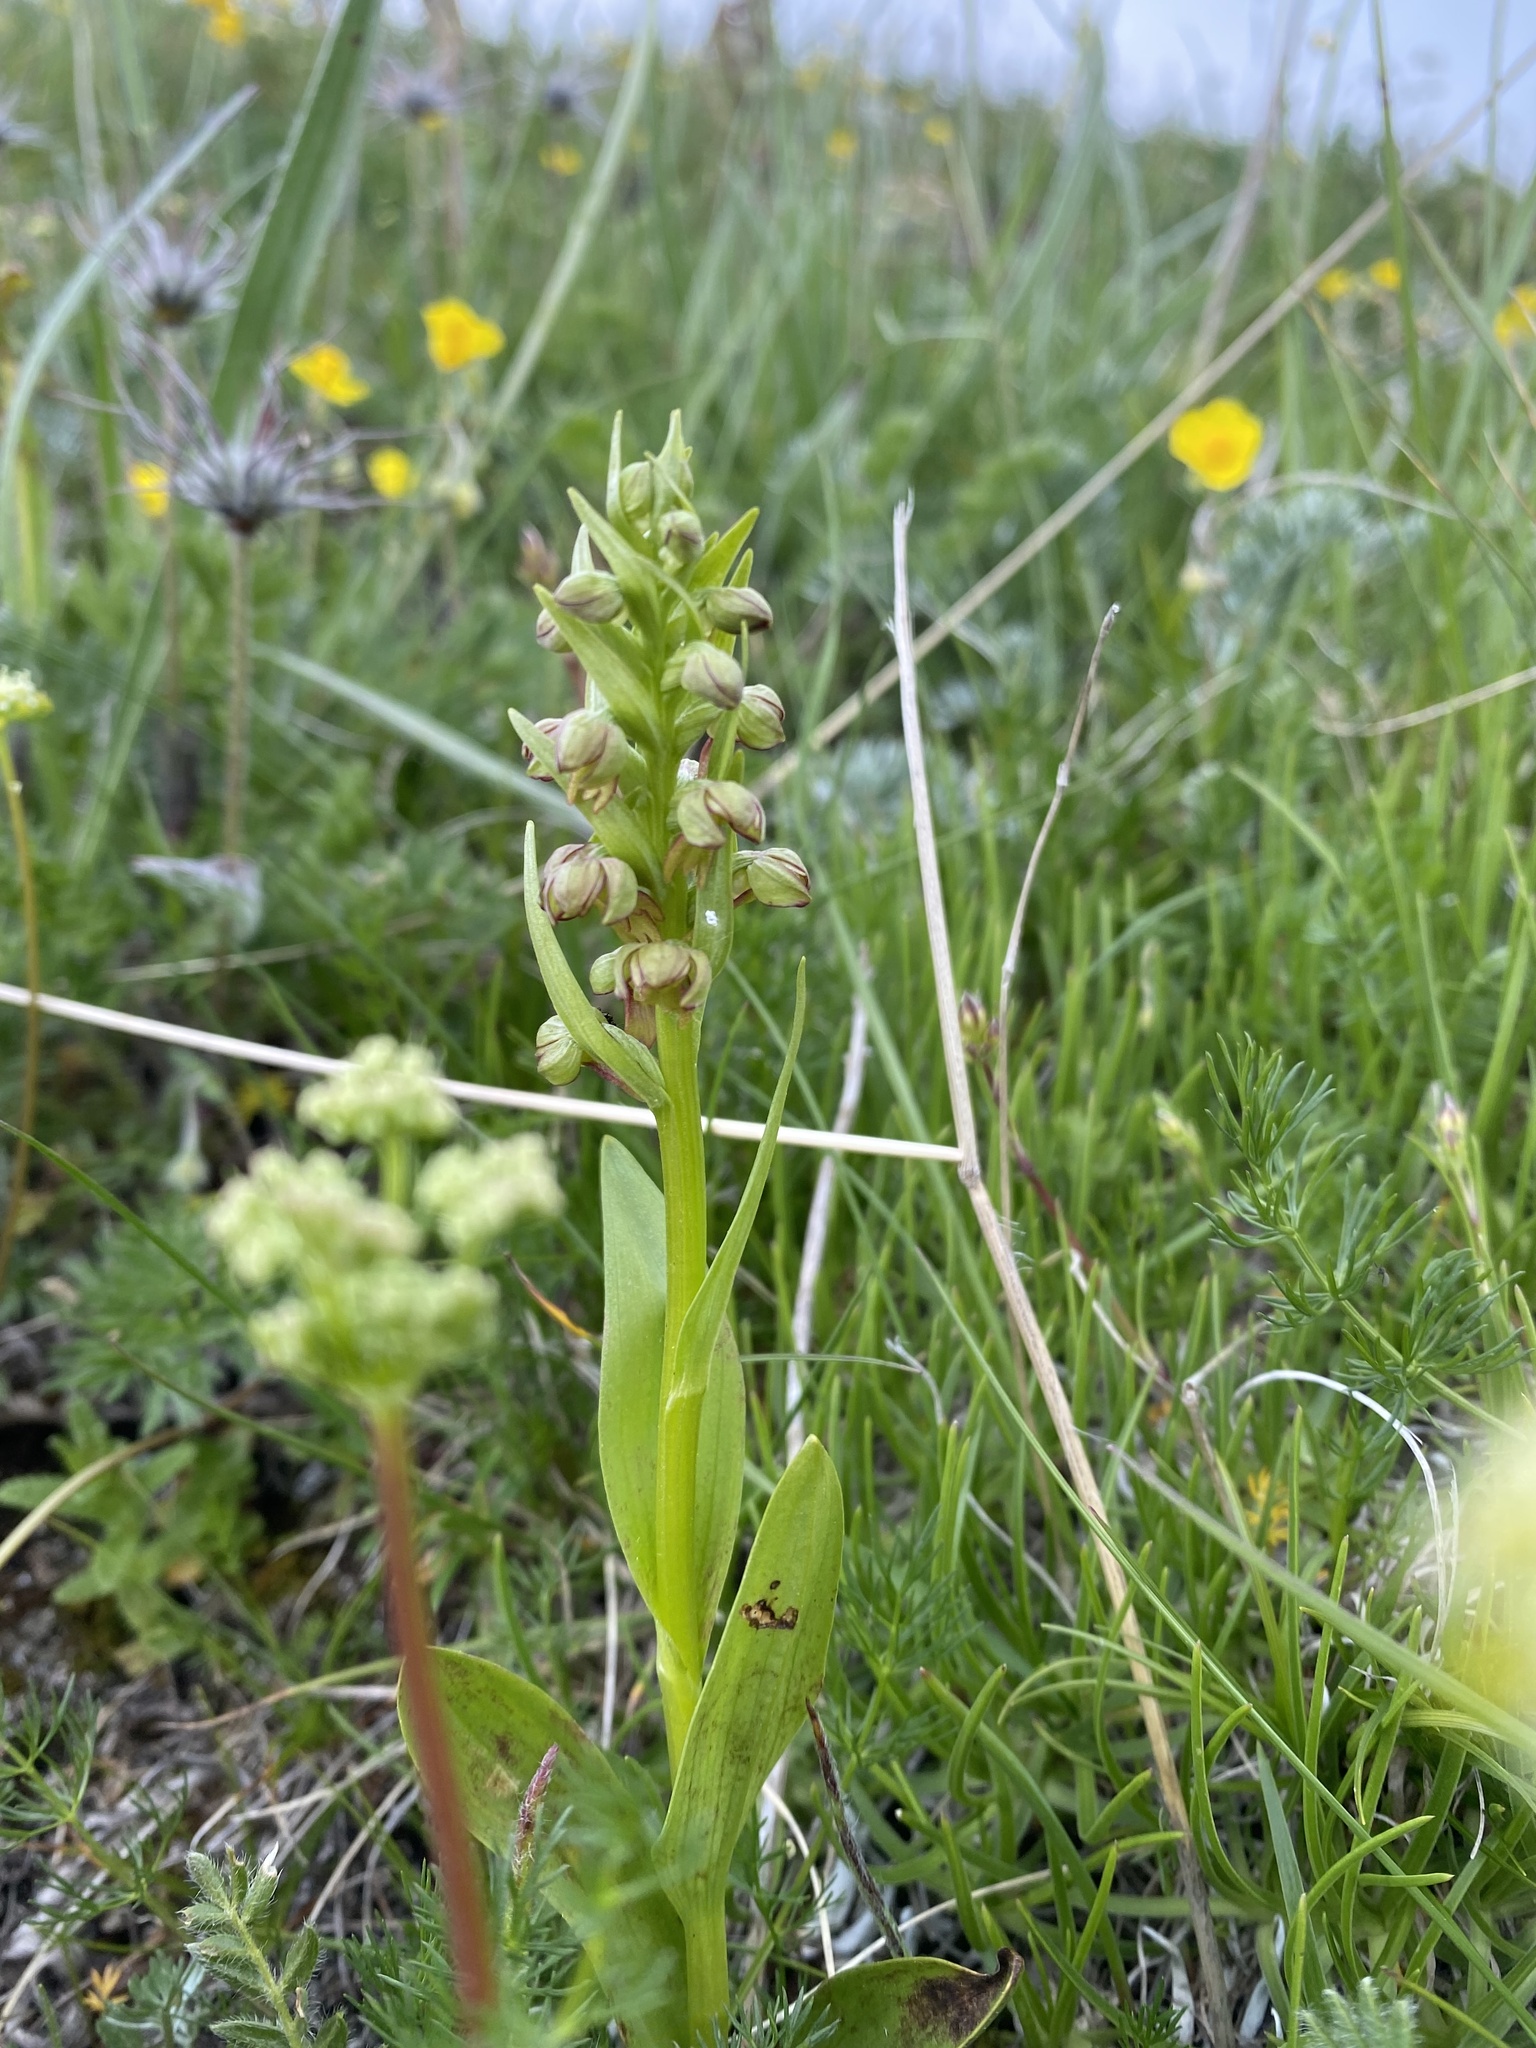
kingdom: Plantae
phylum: Tracheophyta
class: Liliopsida
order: Asparagales
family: Orchidaceae
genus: Dactylorhiza
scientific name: Dactylorhiza viridis
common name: Longbract frog orchid
